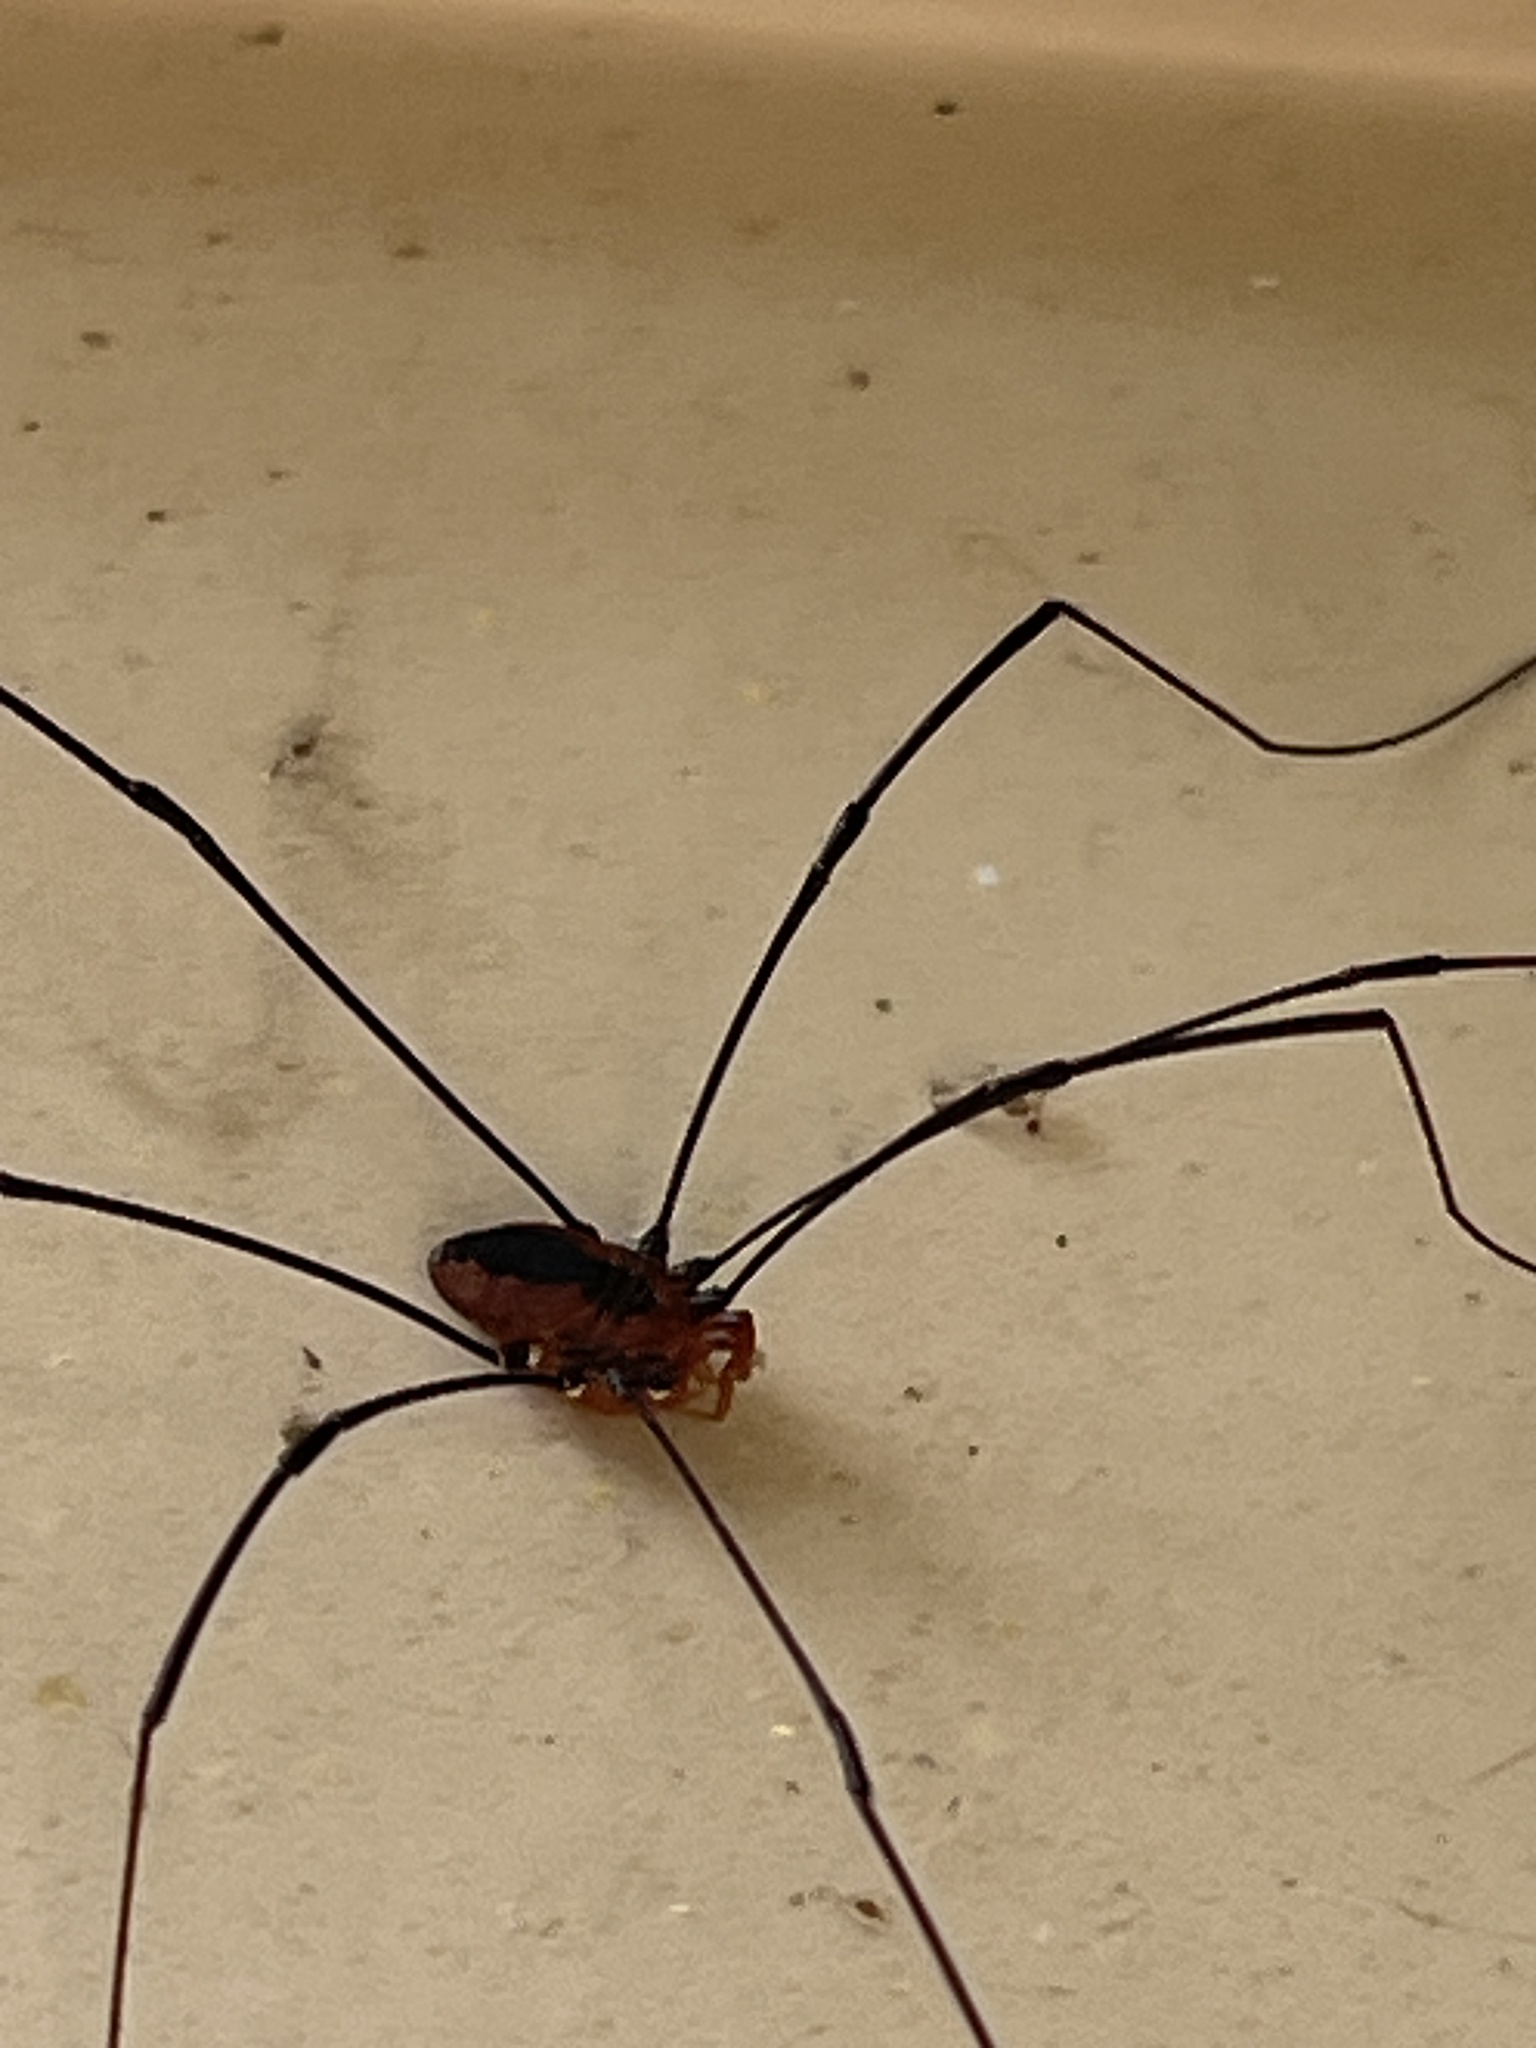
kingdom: Animalia
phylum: Arthropoda
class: Arachnida
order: Opiliones
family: Sclerosomatidae
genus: Leiobunum
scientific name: Leiobunum vittatum
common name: Eastern harvestman
